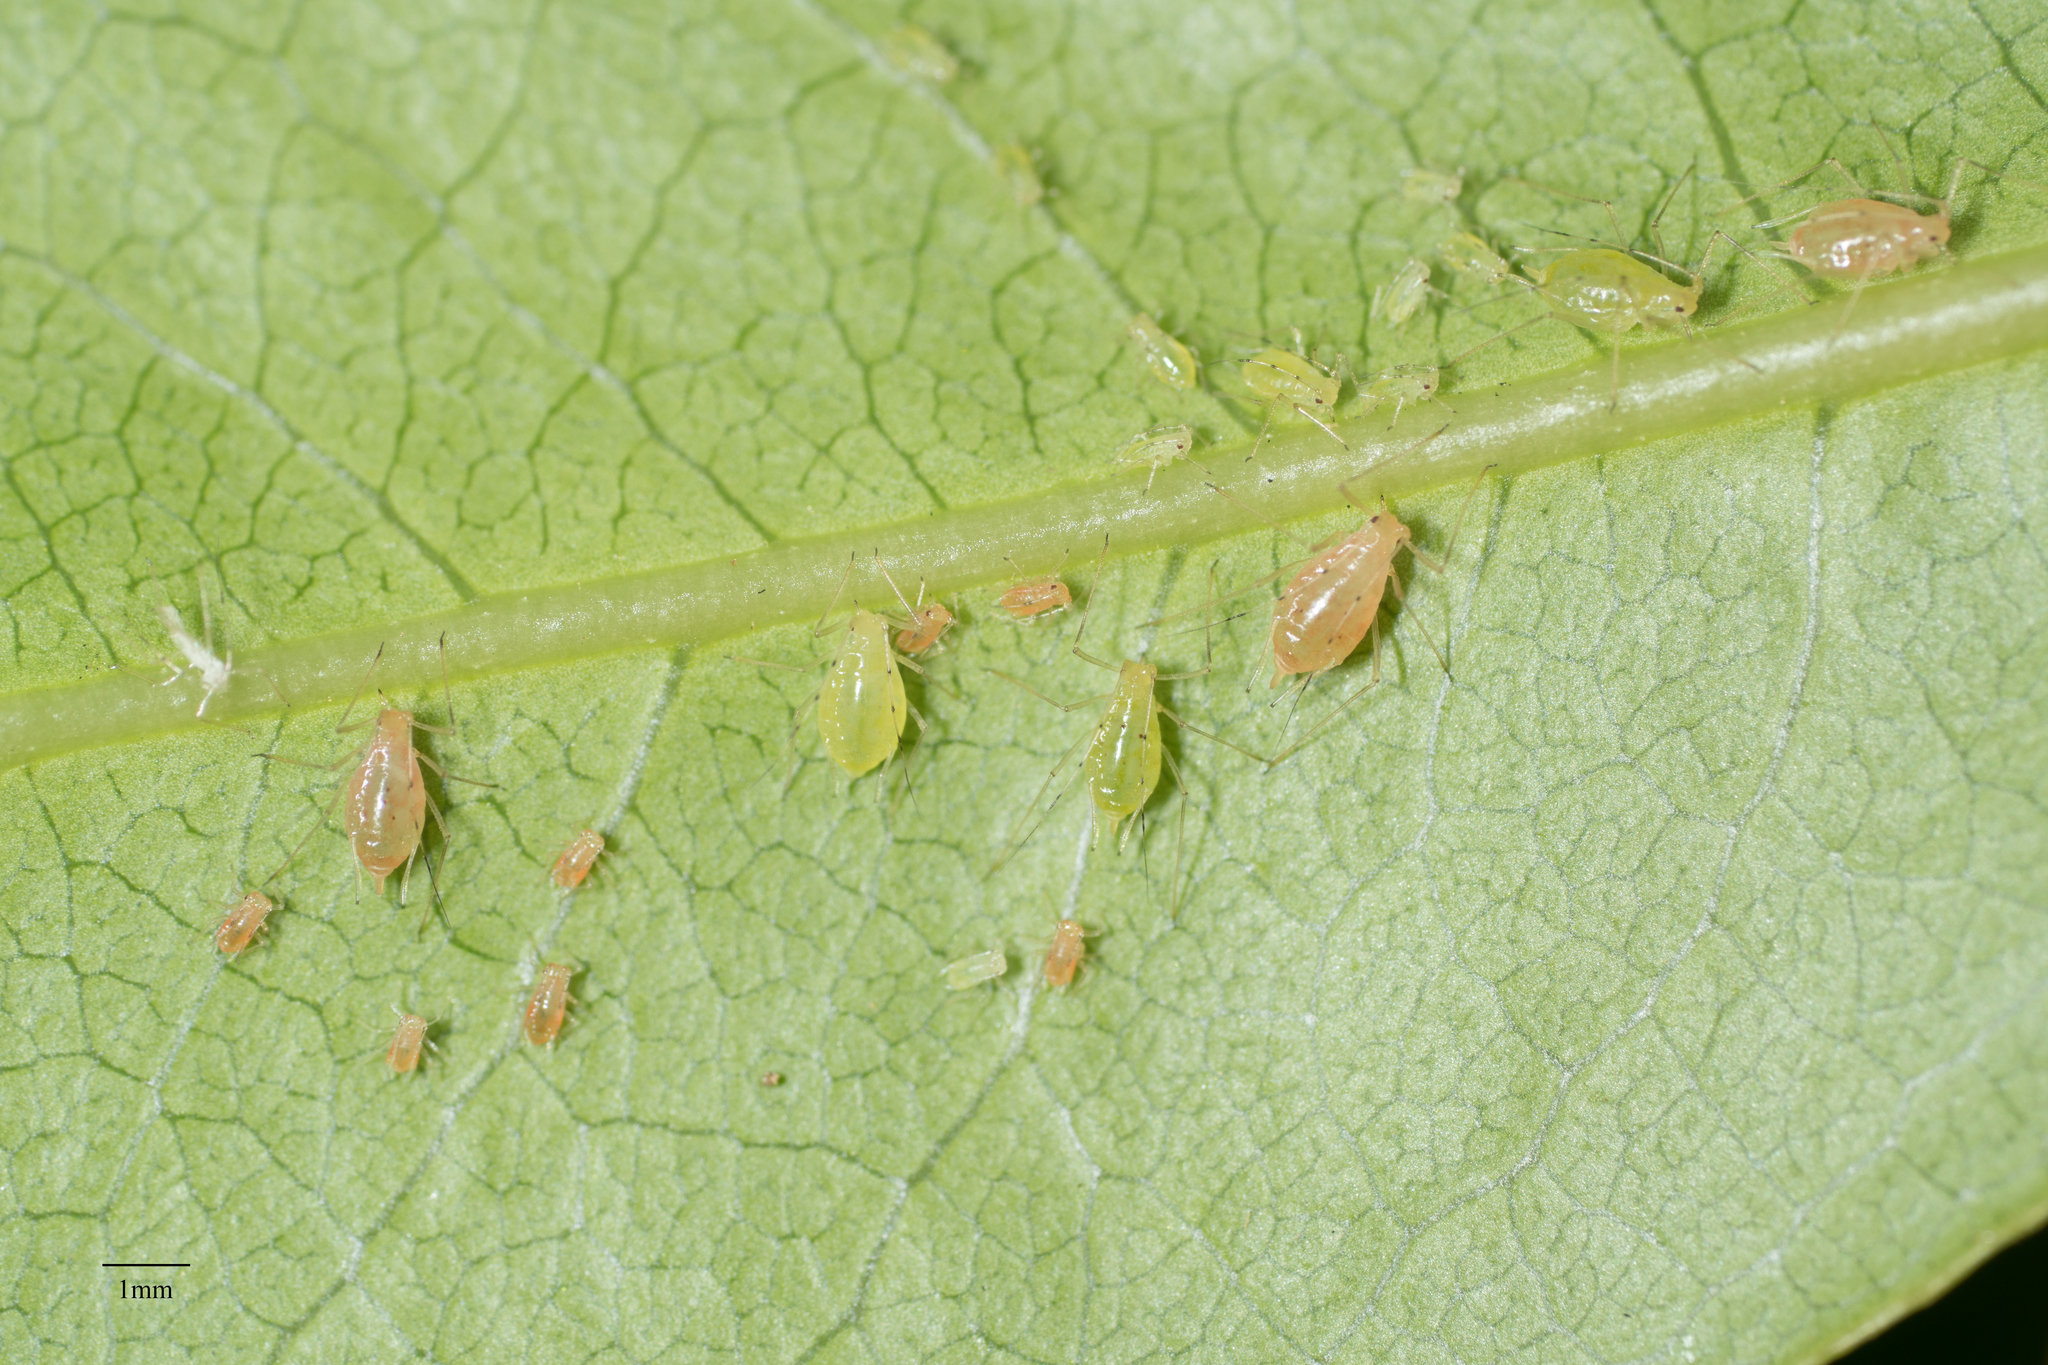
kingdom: Animalia
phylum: Arthropoda
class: Insecta
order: Hemiptera
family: Aphididae
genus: Wahlgreniella
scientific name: Wahlgreniella nervata
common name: Pale green aphid
